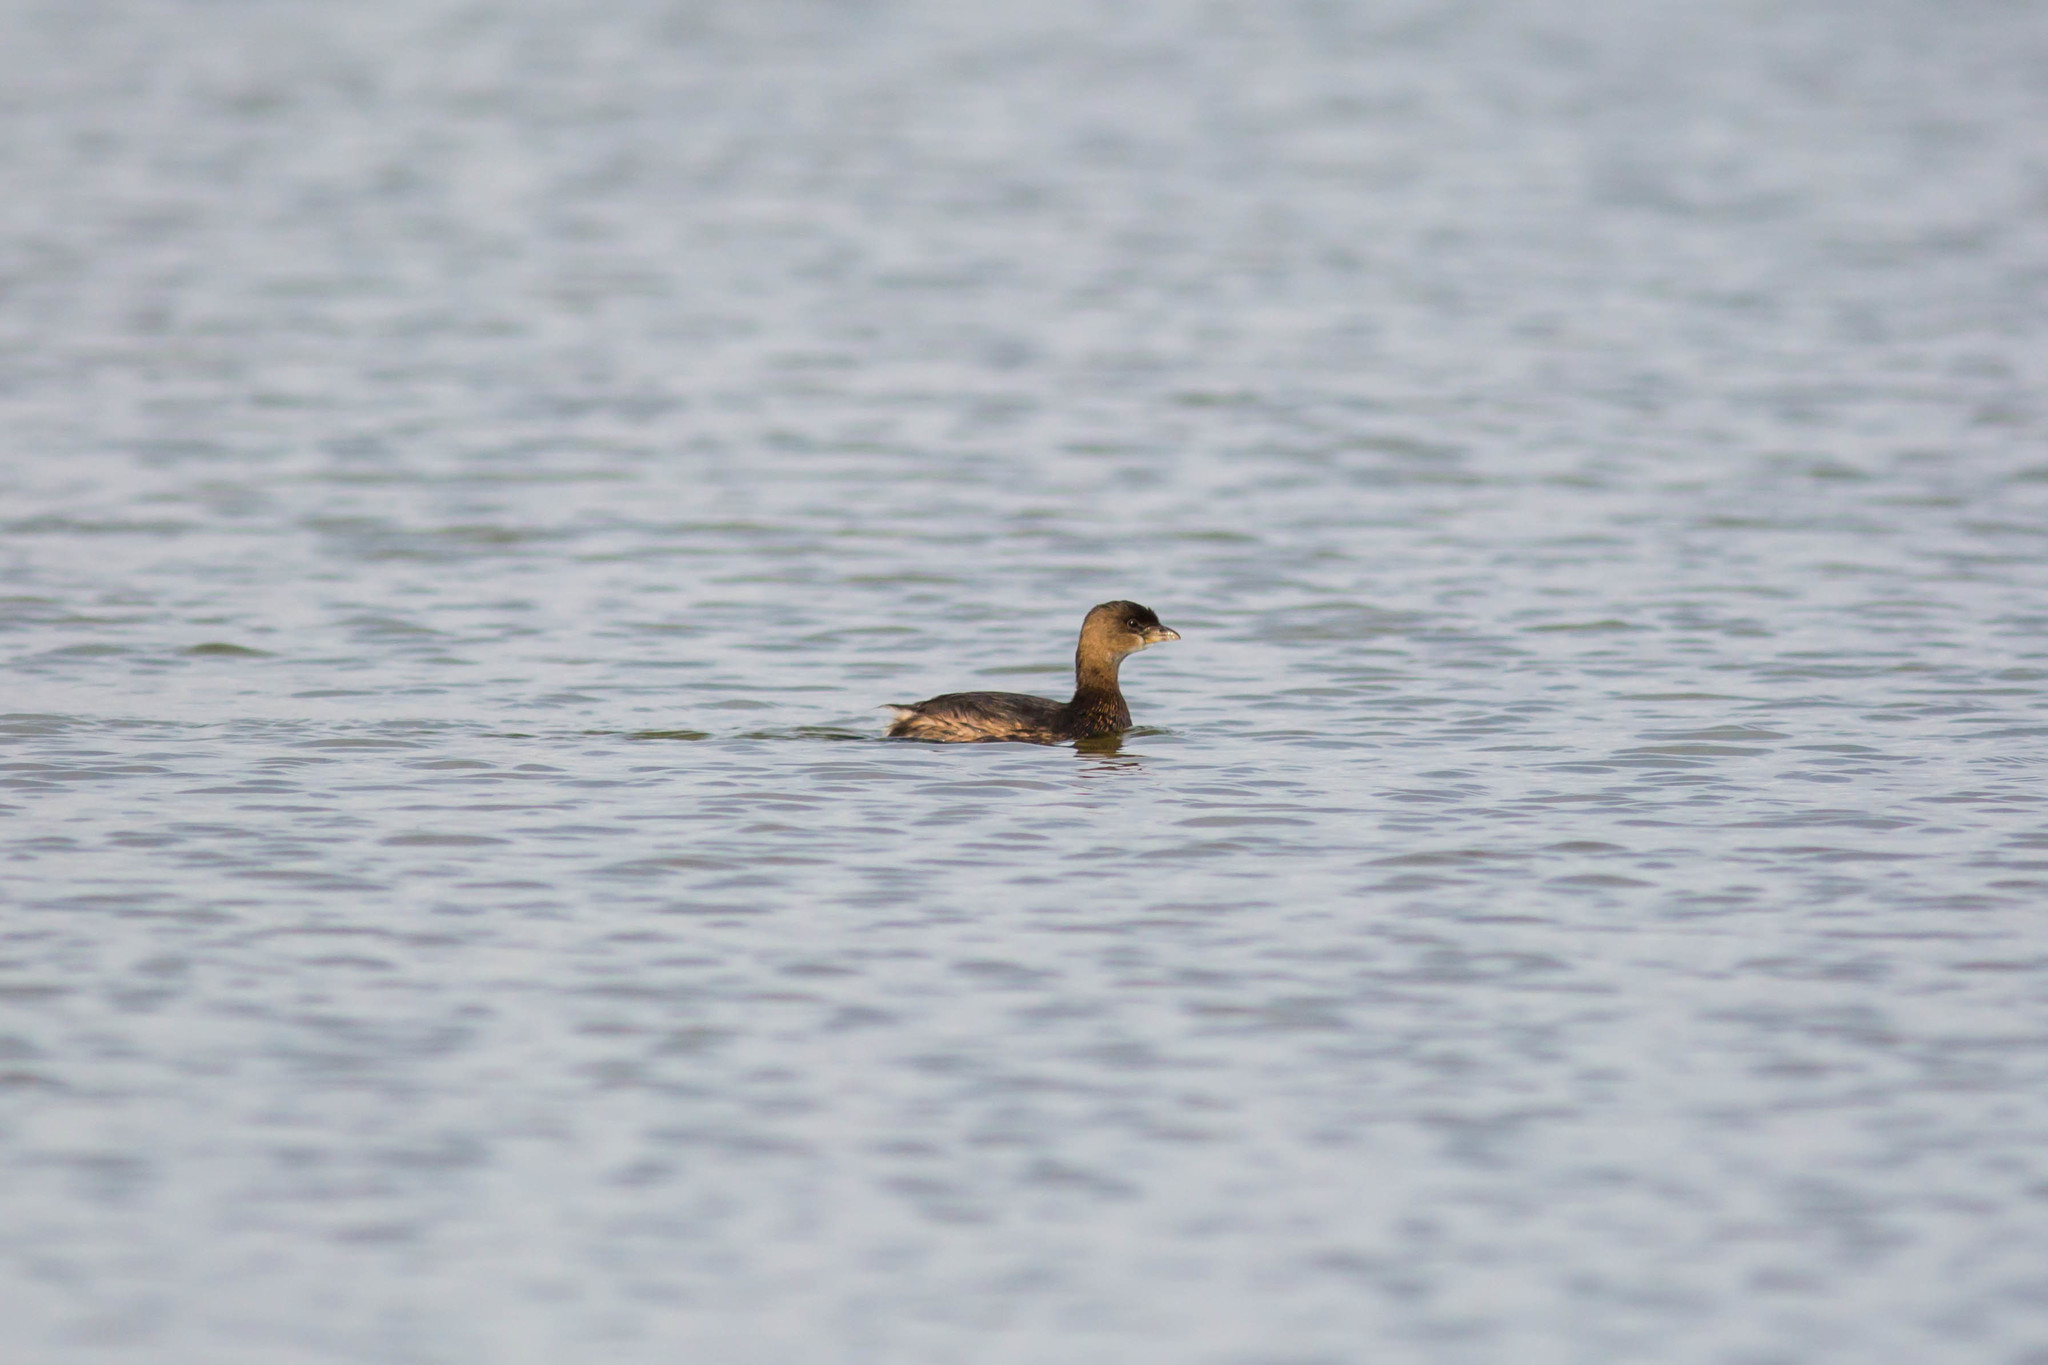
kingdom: Animalia
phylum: Chordata
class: Aves
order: Podicipediformes
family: Podicipedidae
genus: Podilymbus
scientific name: Podilymbus podiceps
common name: Pied-billed grebe
